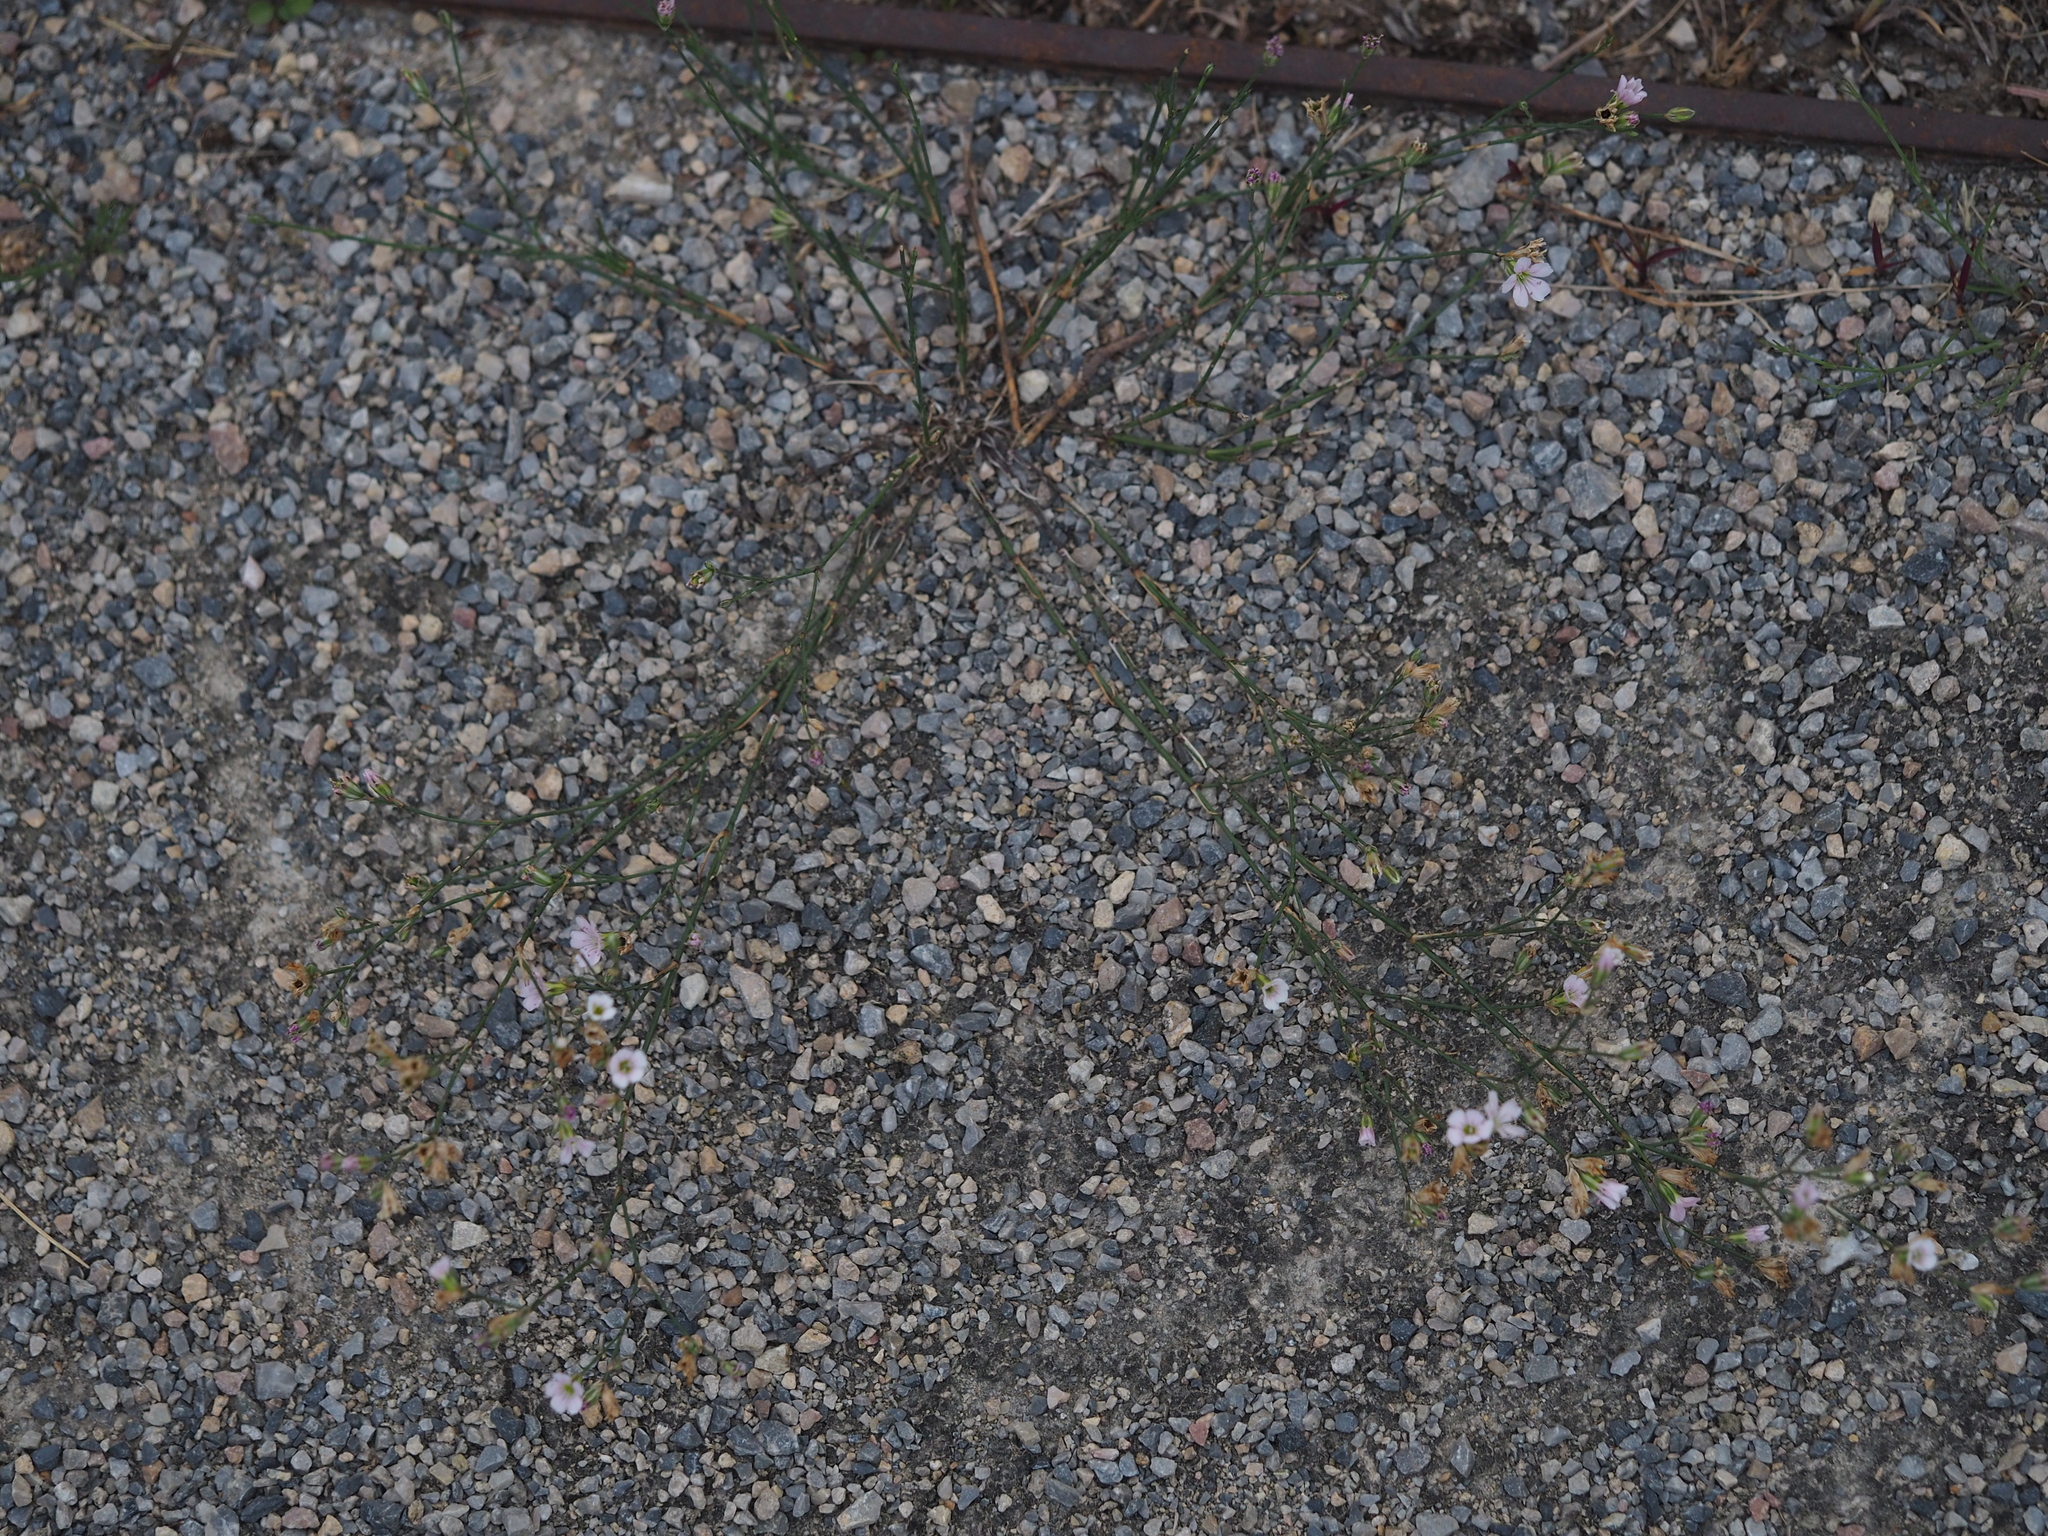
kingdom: Plantae
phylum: Tracheophyta
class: Magnoliopsida
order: Caryophyllales
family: Caryophyllaceae
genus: Petrorhagia
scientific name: Petrorhagia saxifraga
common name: Tunicflower
